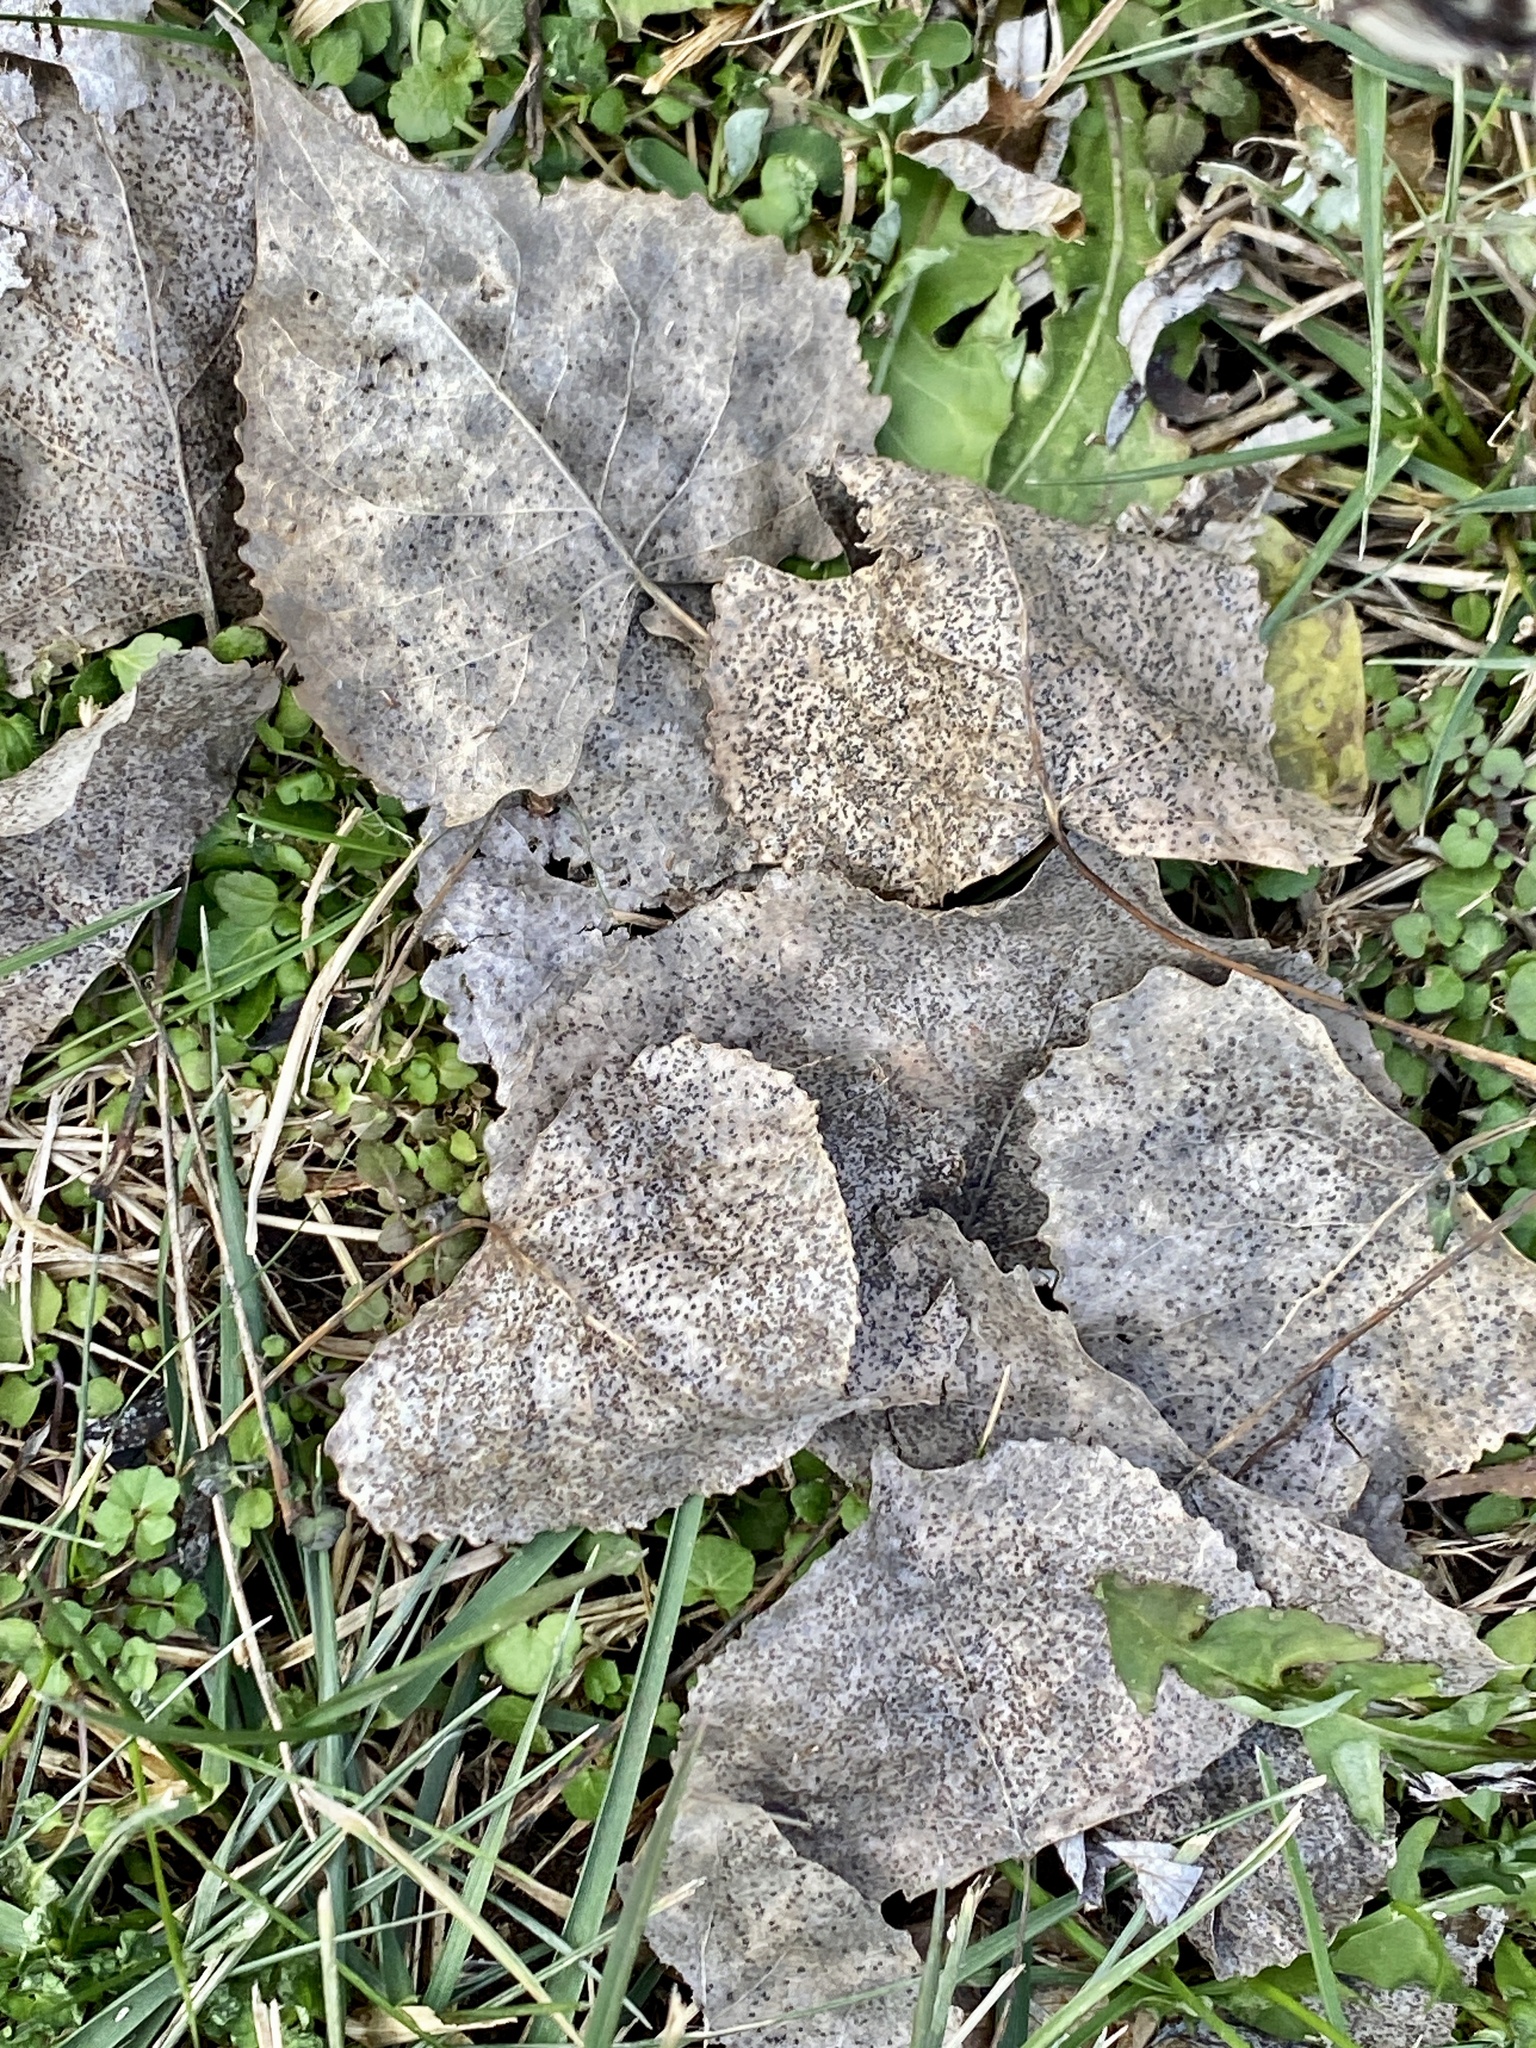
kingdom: Plantae
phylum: Tracheophyta
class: Magnoliopsida
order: Malpighiales
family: Salicaceae
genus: Populus
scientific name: Populus deltoides
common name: Eastern cottonwood
